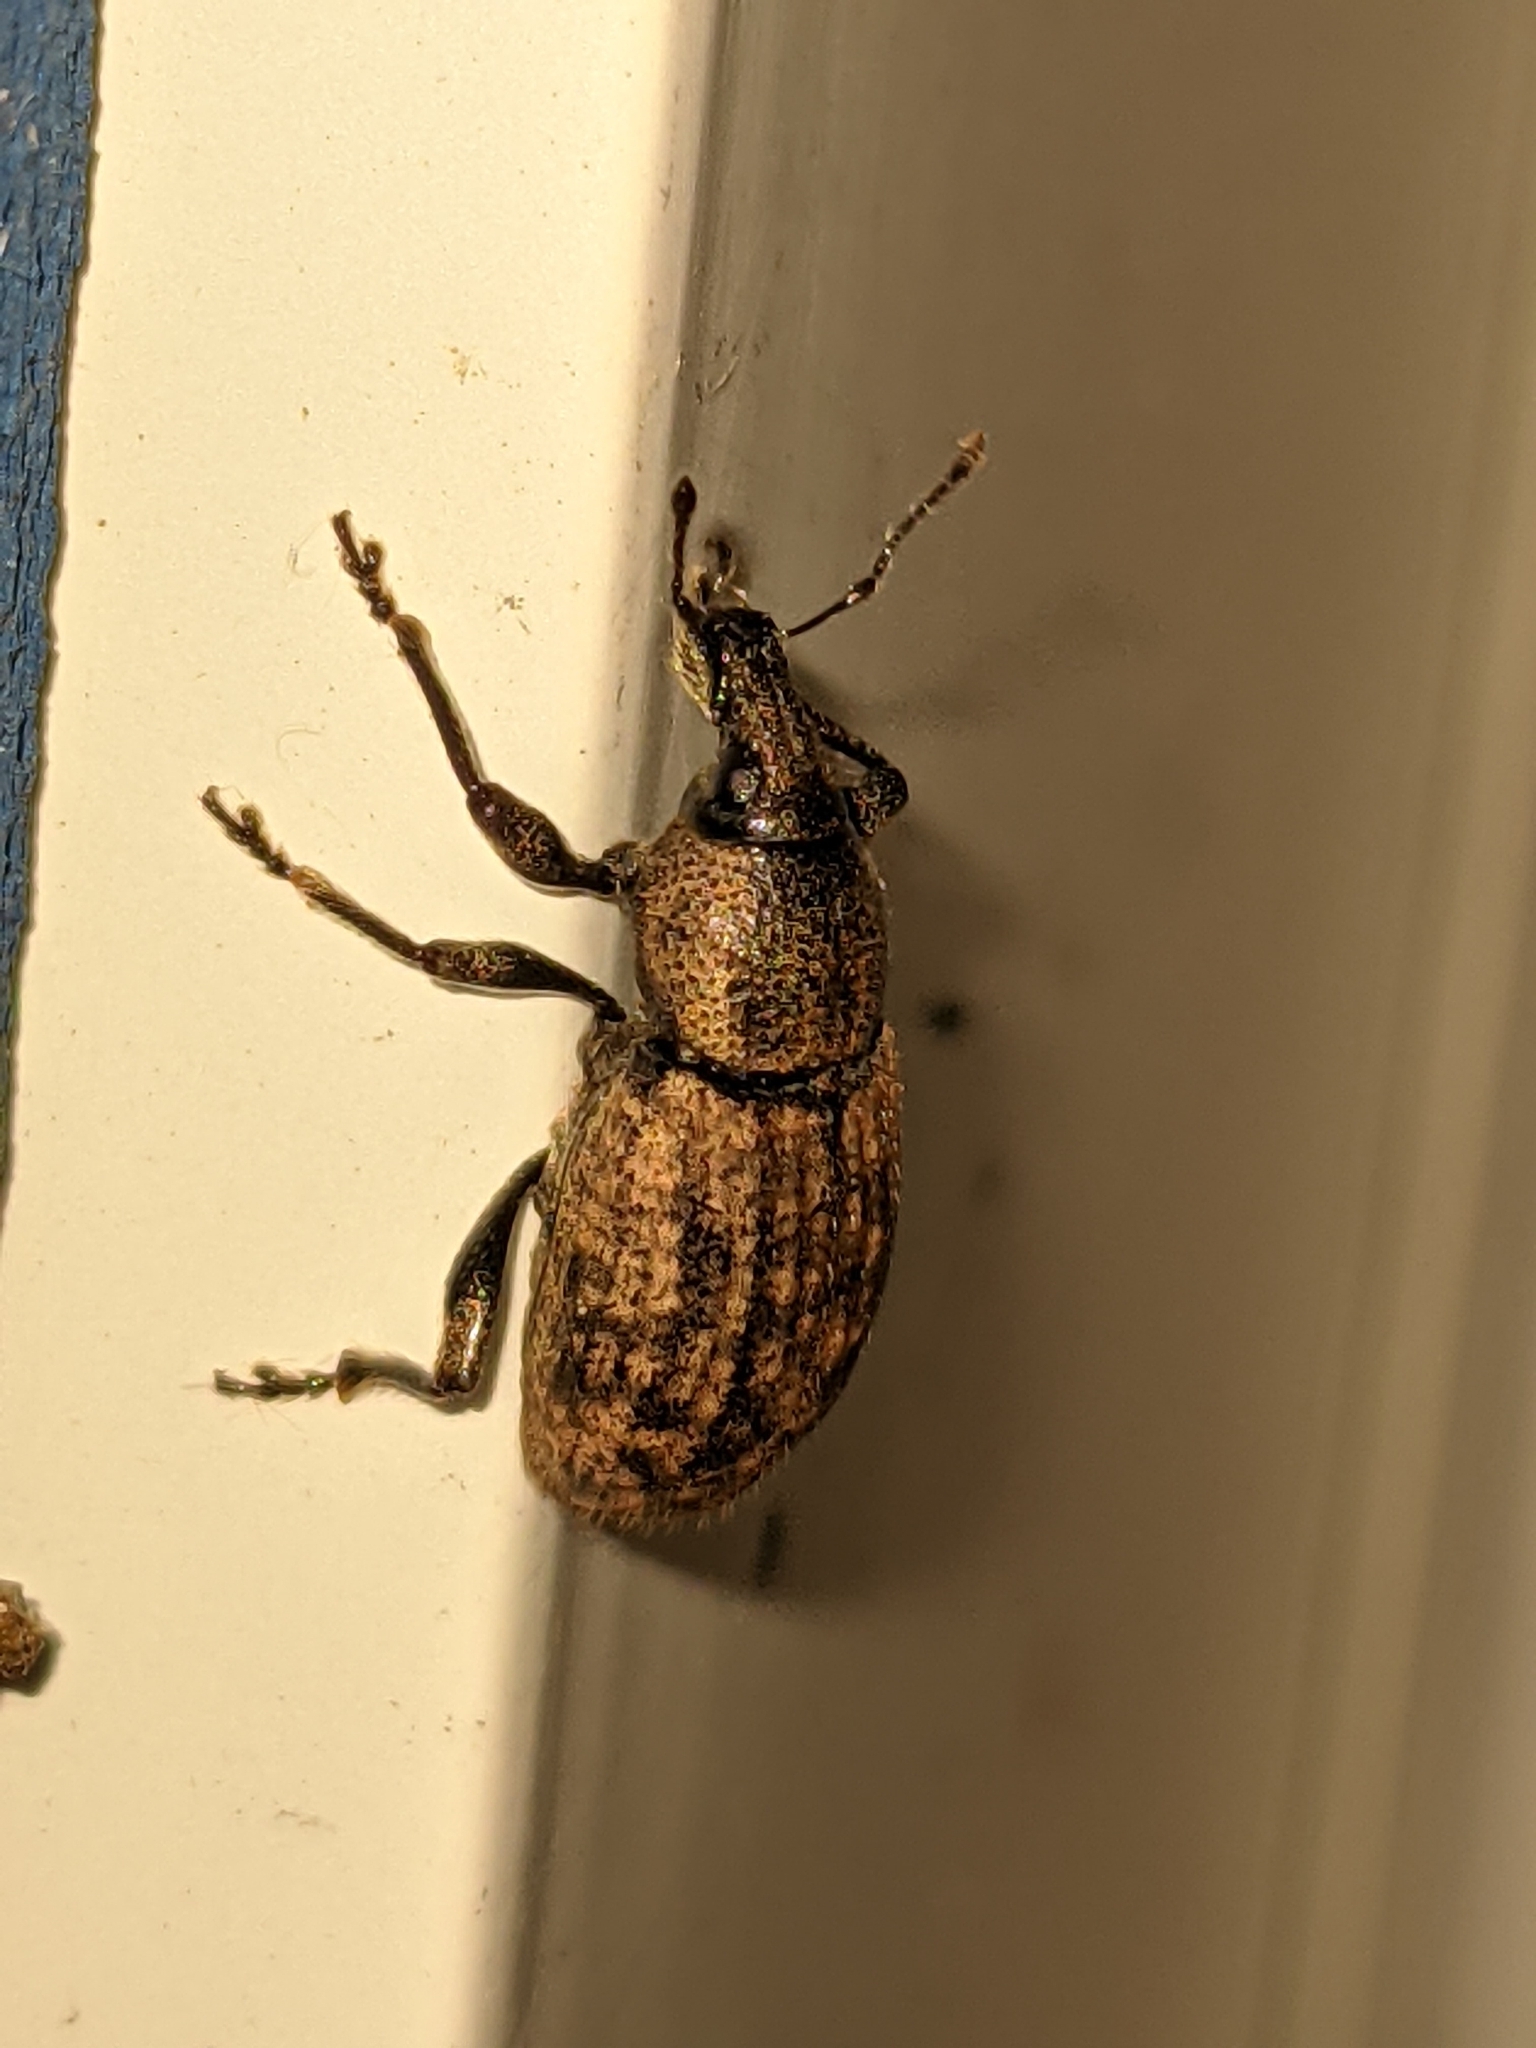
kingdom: Animalia
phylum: Arthropoda
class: Insecta
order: Coleoptera
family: Curculionidae
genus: Barynotus
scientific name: Barynotus obscurus
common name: Weevil
